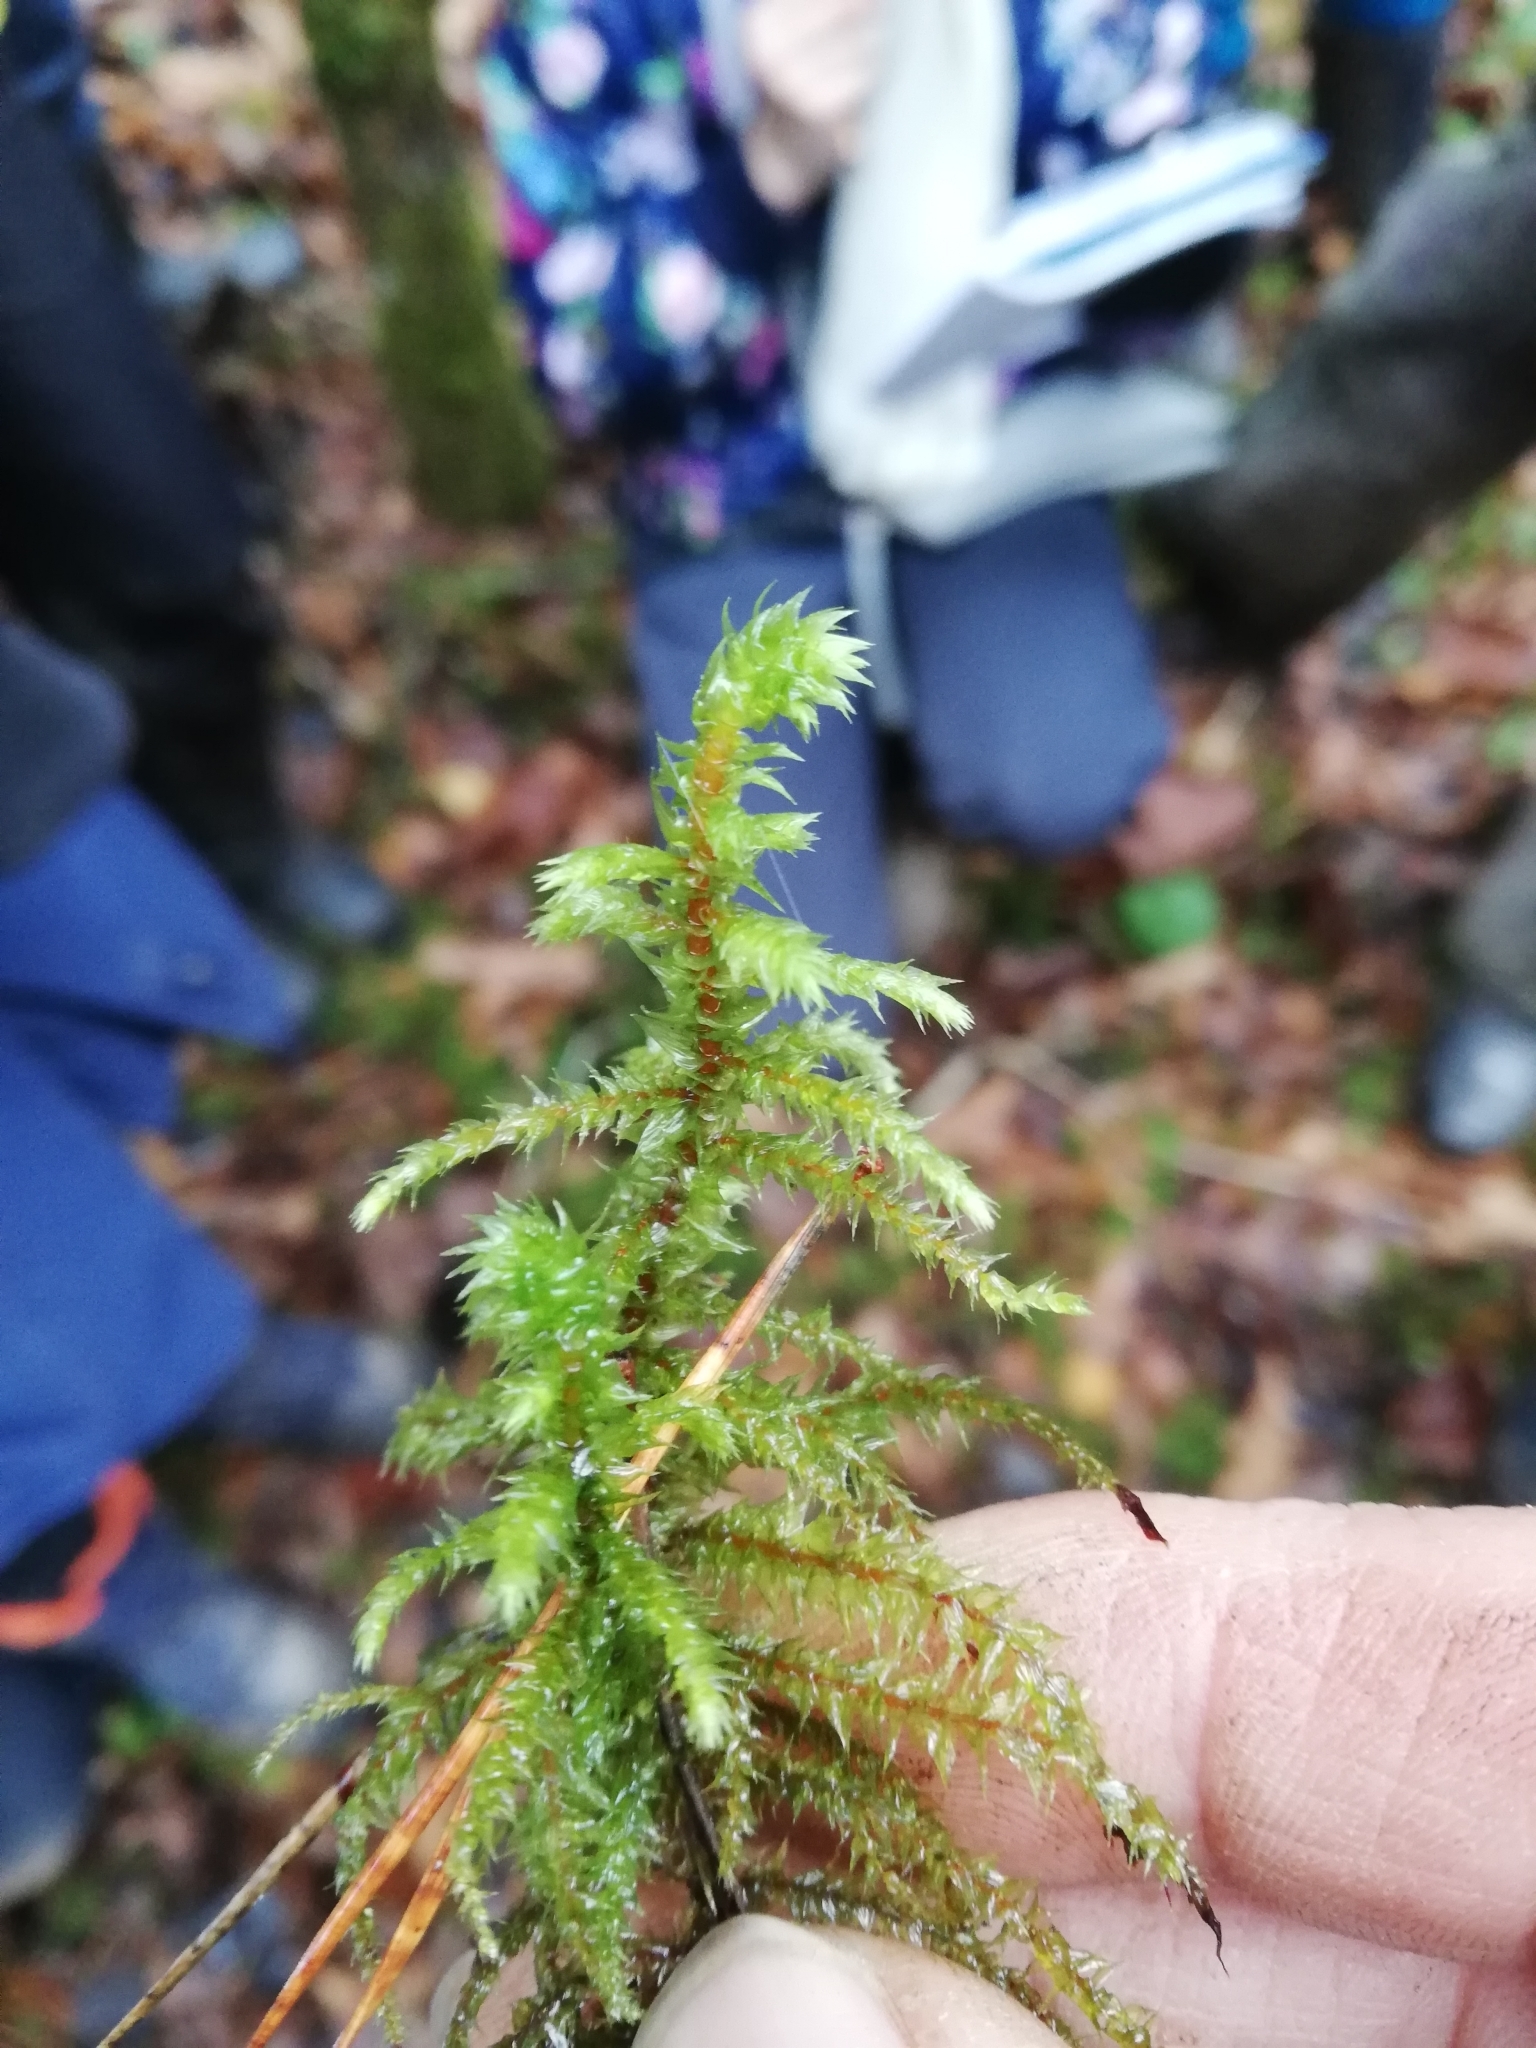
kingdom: Plantae
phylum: Bryophyta
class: Bryopsida
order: Hypnales
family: Hylocomiaceae
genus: Hylocomiadelphus
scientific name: Hylocomiadelphus triquetrus
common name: Rough goose neck moss
